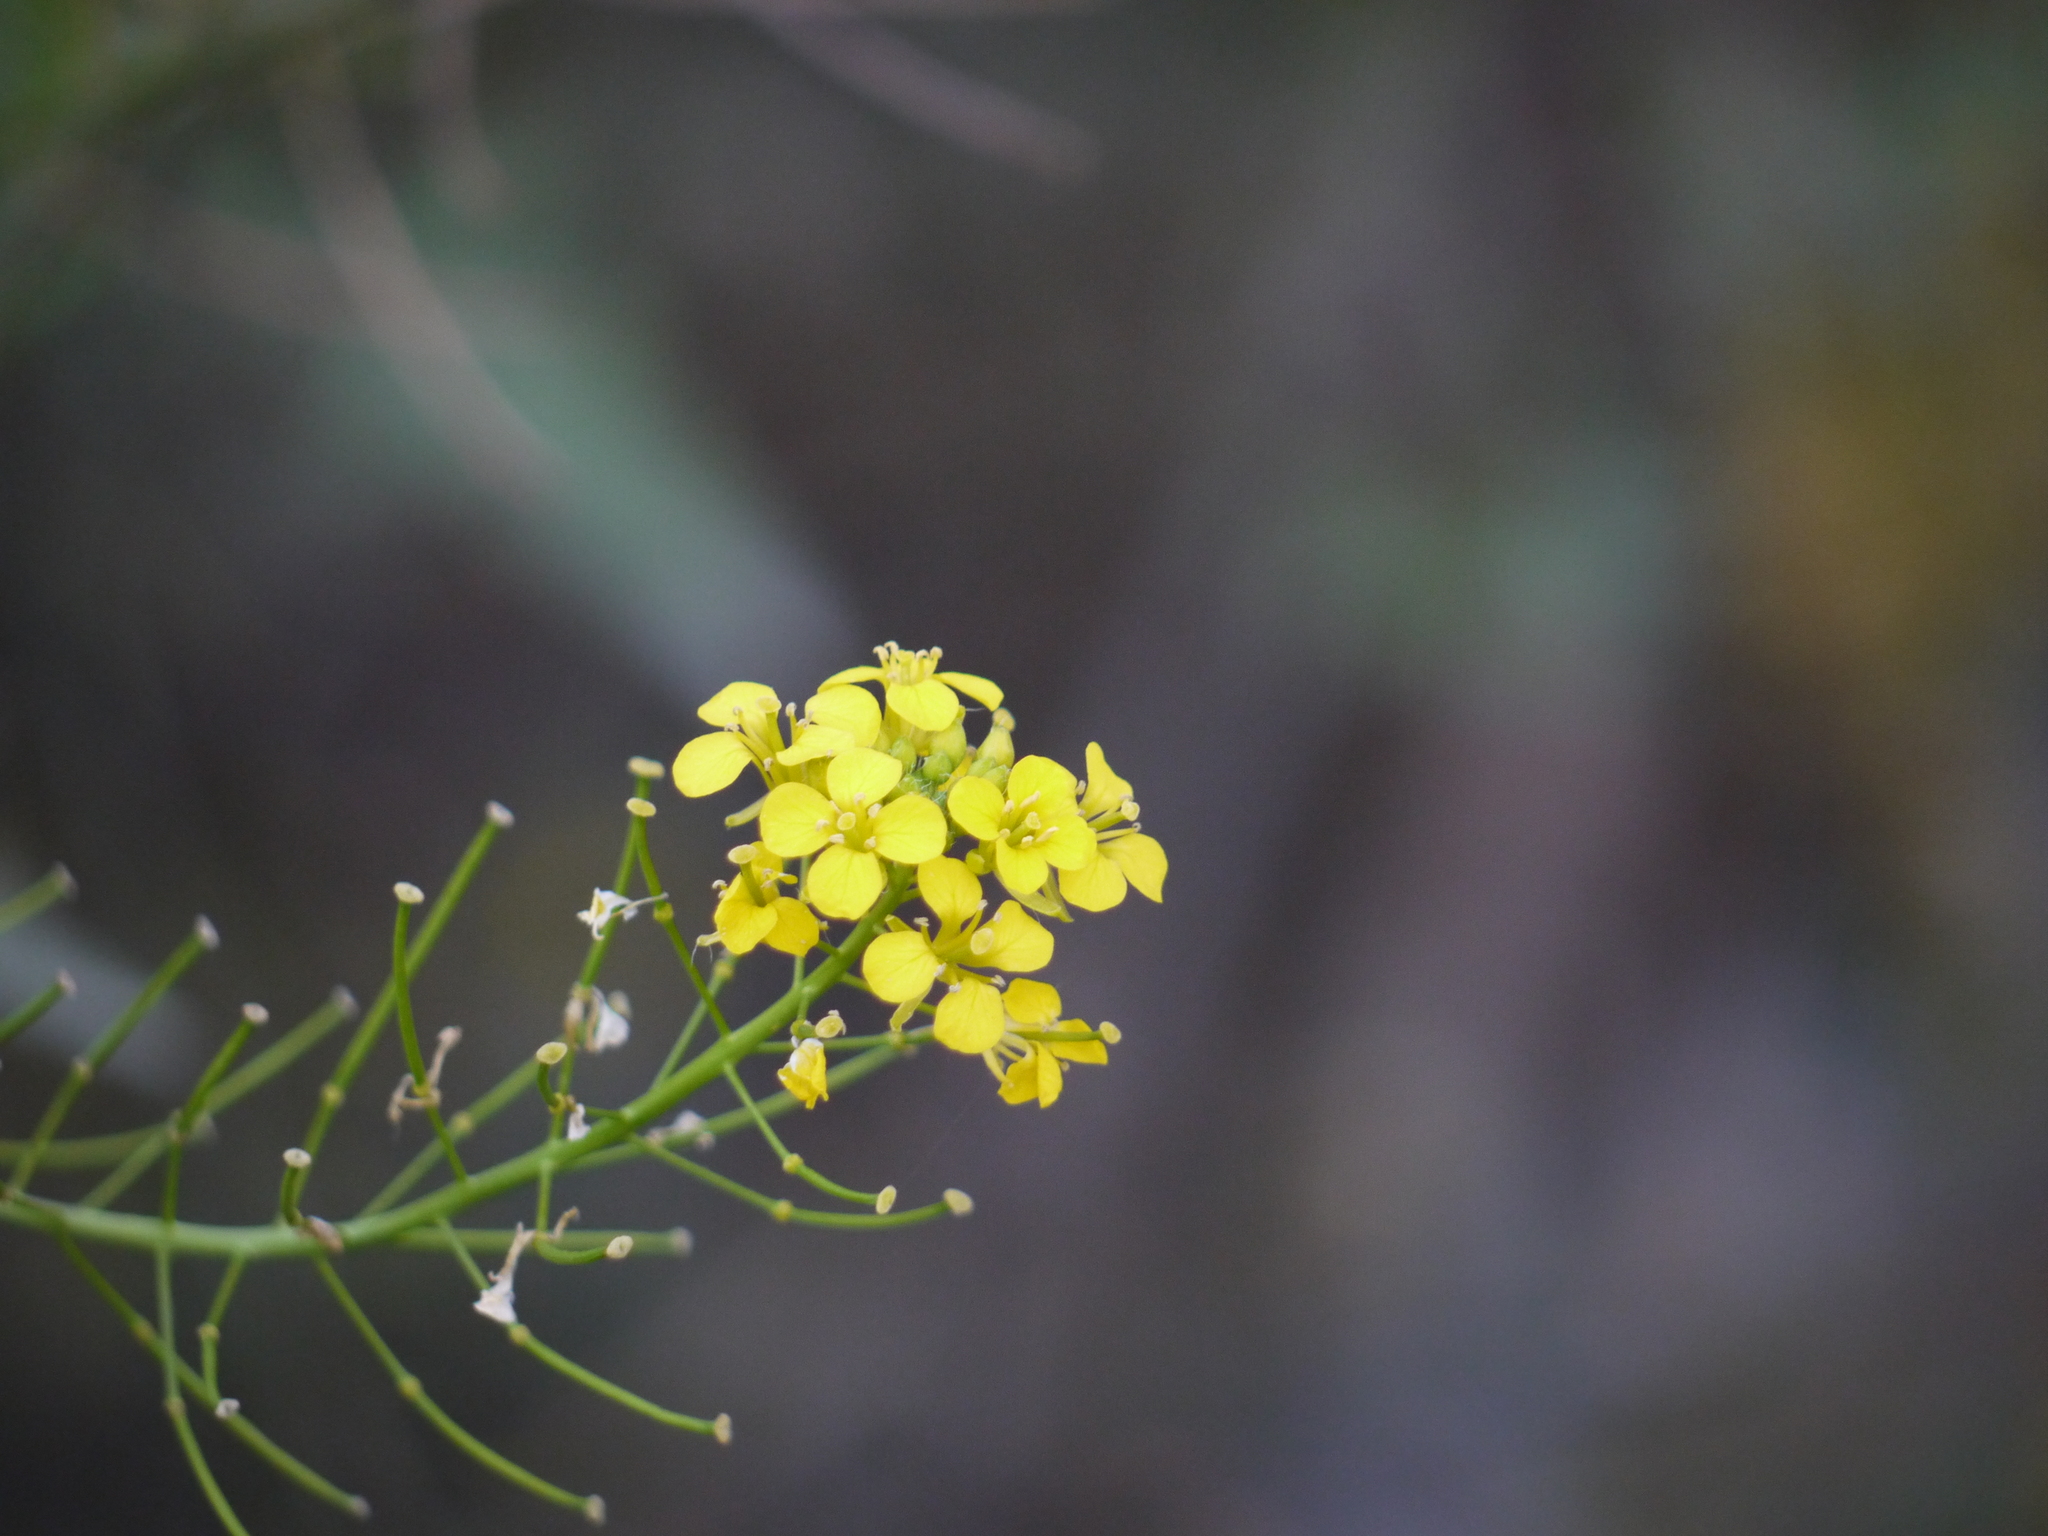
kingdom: Plantae
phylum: Tracheophyta
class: Magnoliopsida
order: Brassicales
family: Brassicaceae
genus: Brassica
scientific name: Brassica rapa
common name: Field mustard
